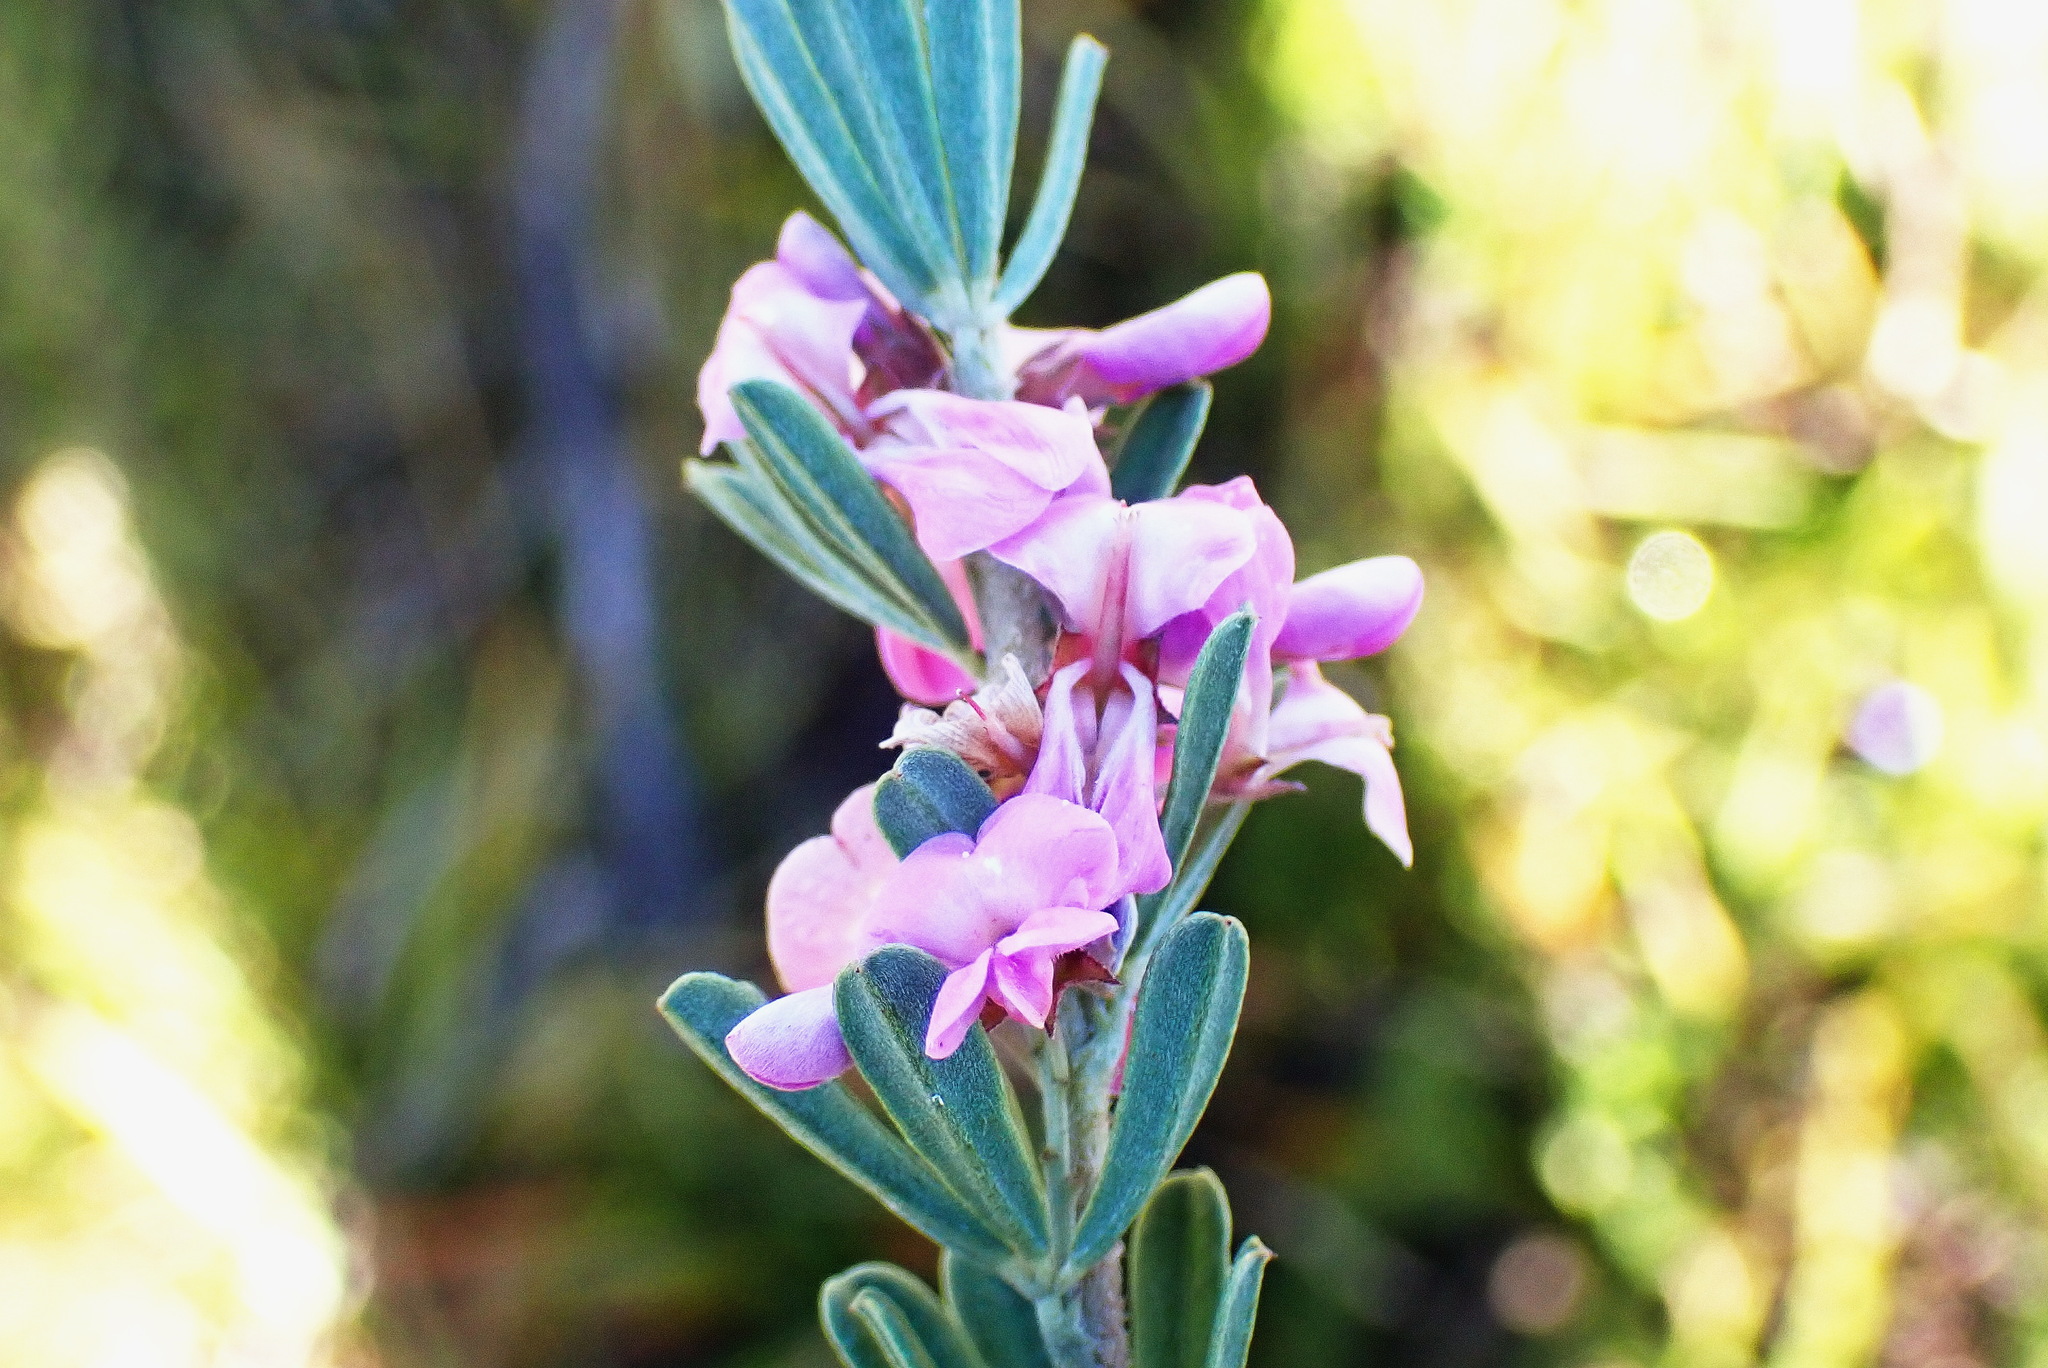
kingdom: Plantae
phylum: Tracheophyta
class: Magnoliopsida
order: Fabales
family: Fabaceae
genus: Indigofera
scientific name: Indigofera flabellata
